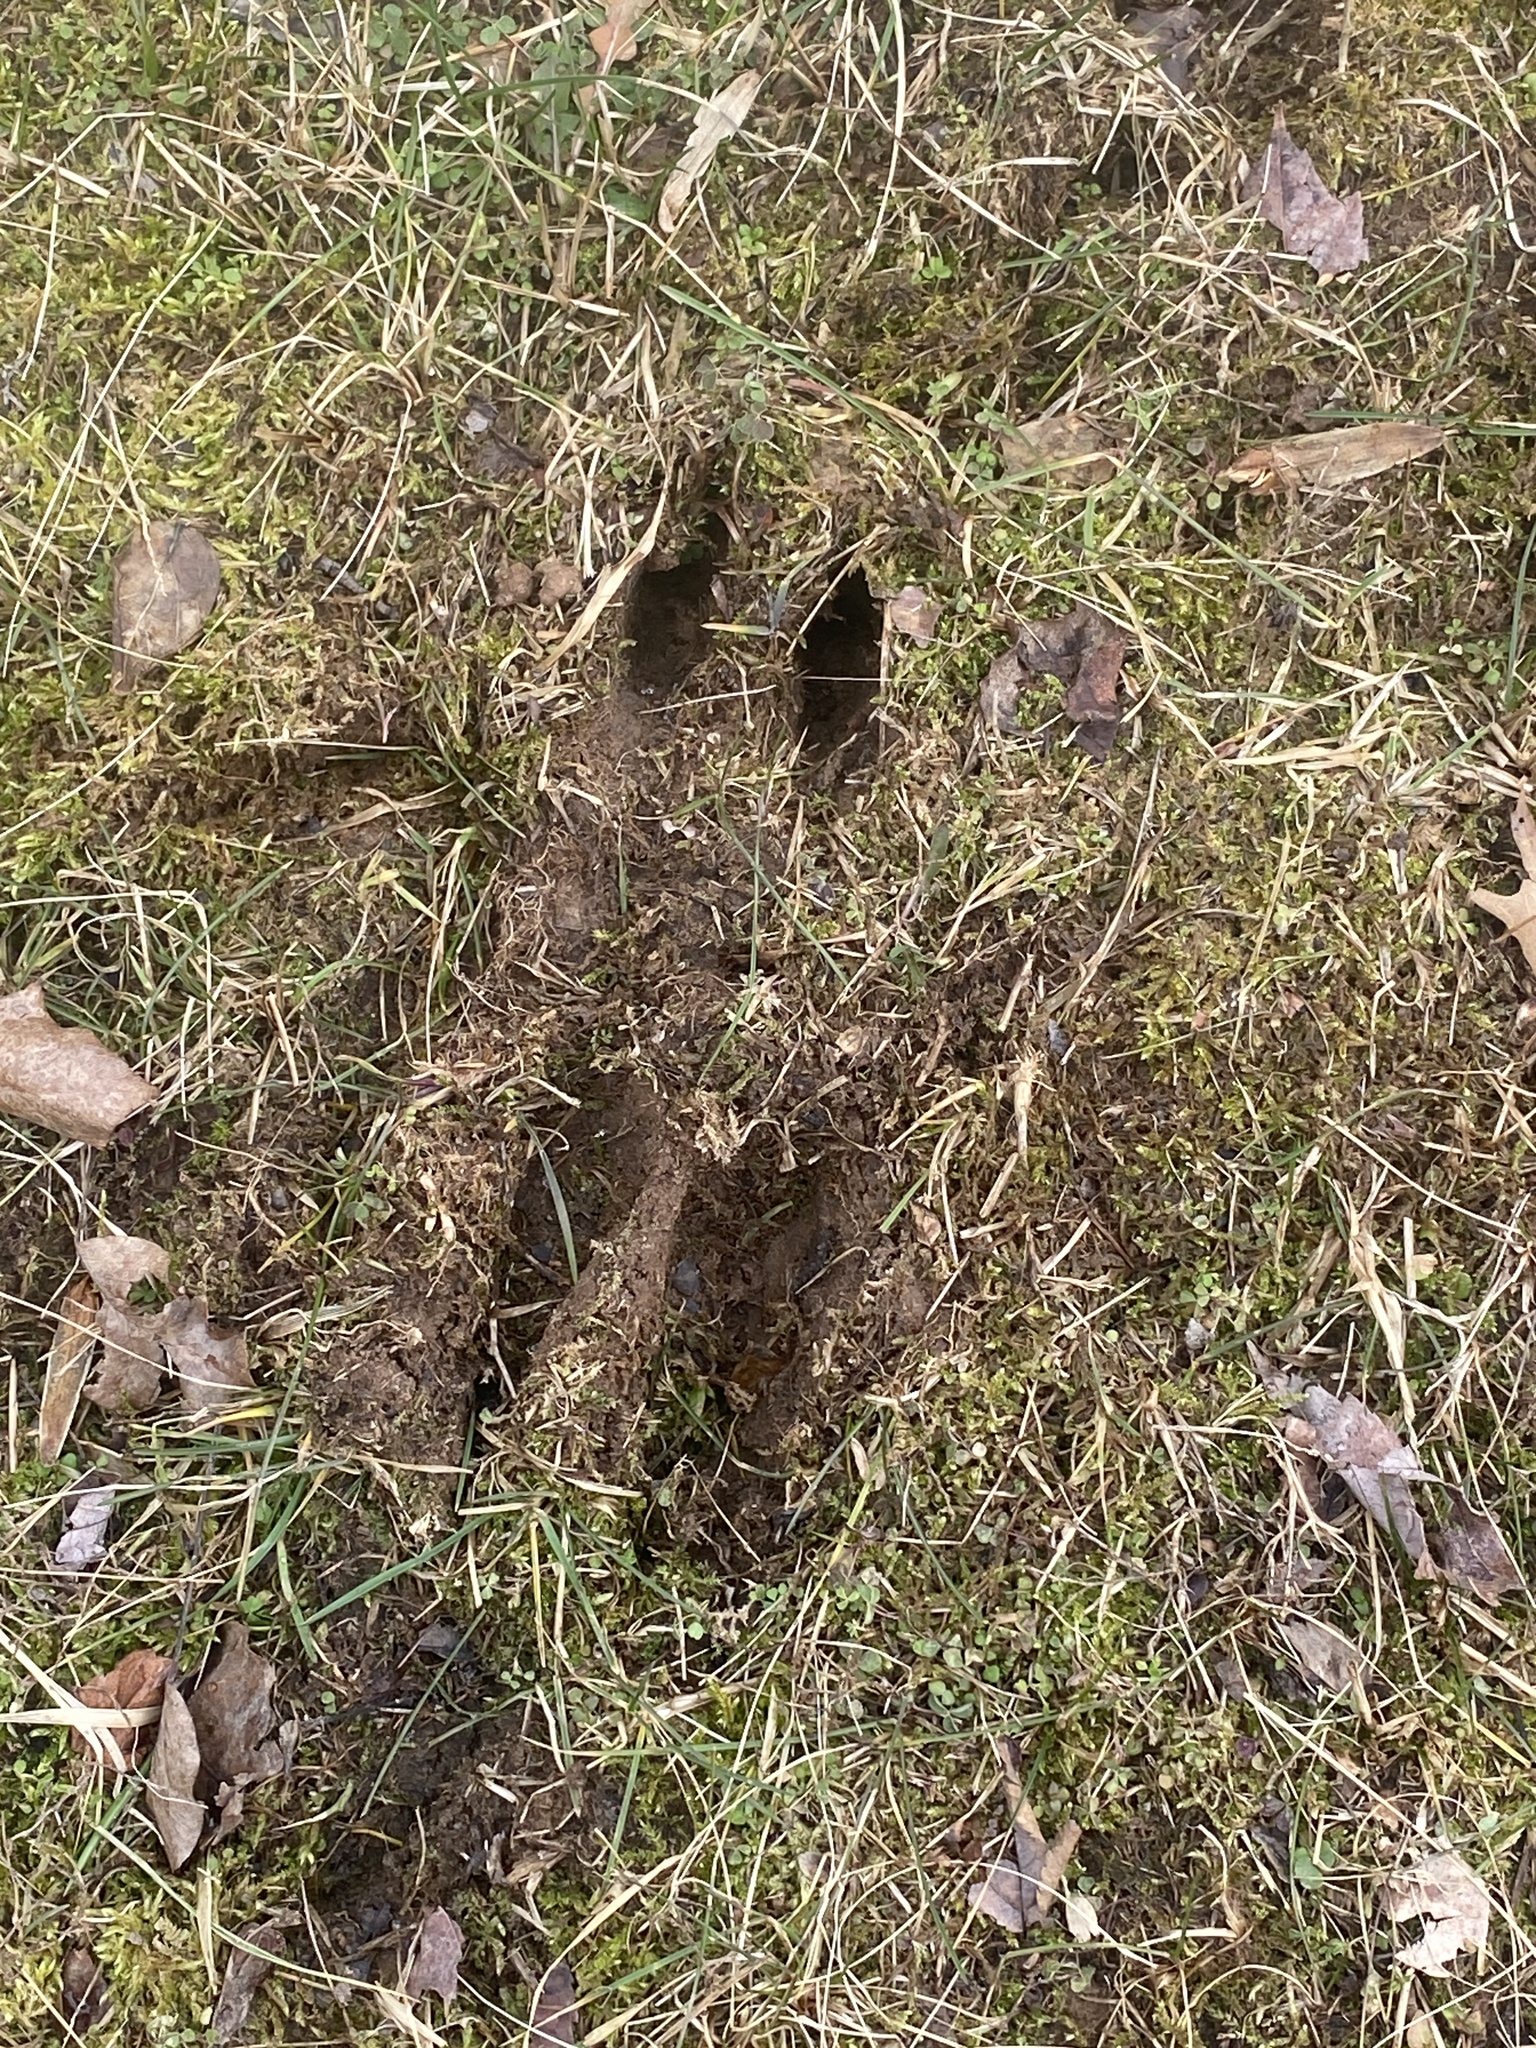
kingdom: Animalia
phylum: Chordata
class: Mammalia
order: Artiodactyla
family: Cervidae
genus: Odocoileus
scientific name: Odocoileus virginianus
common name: White-tailed deer
